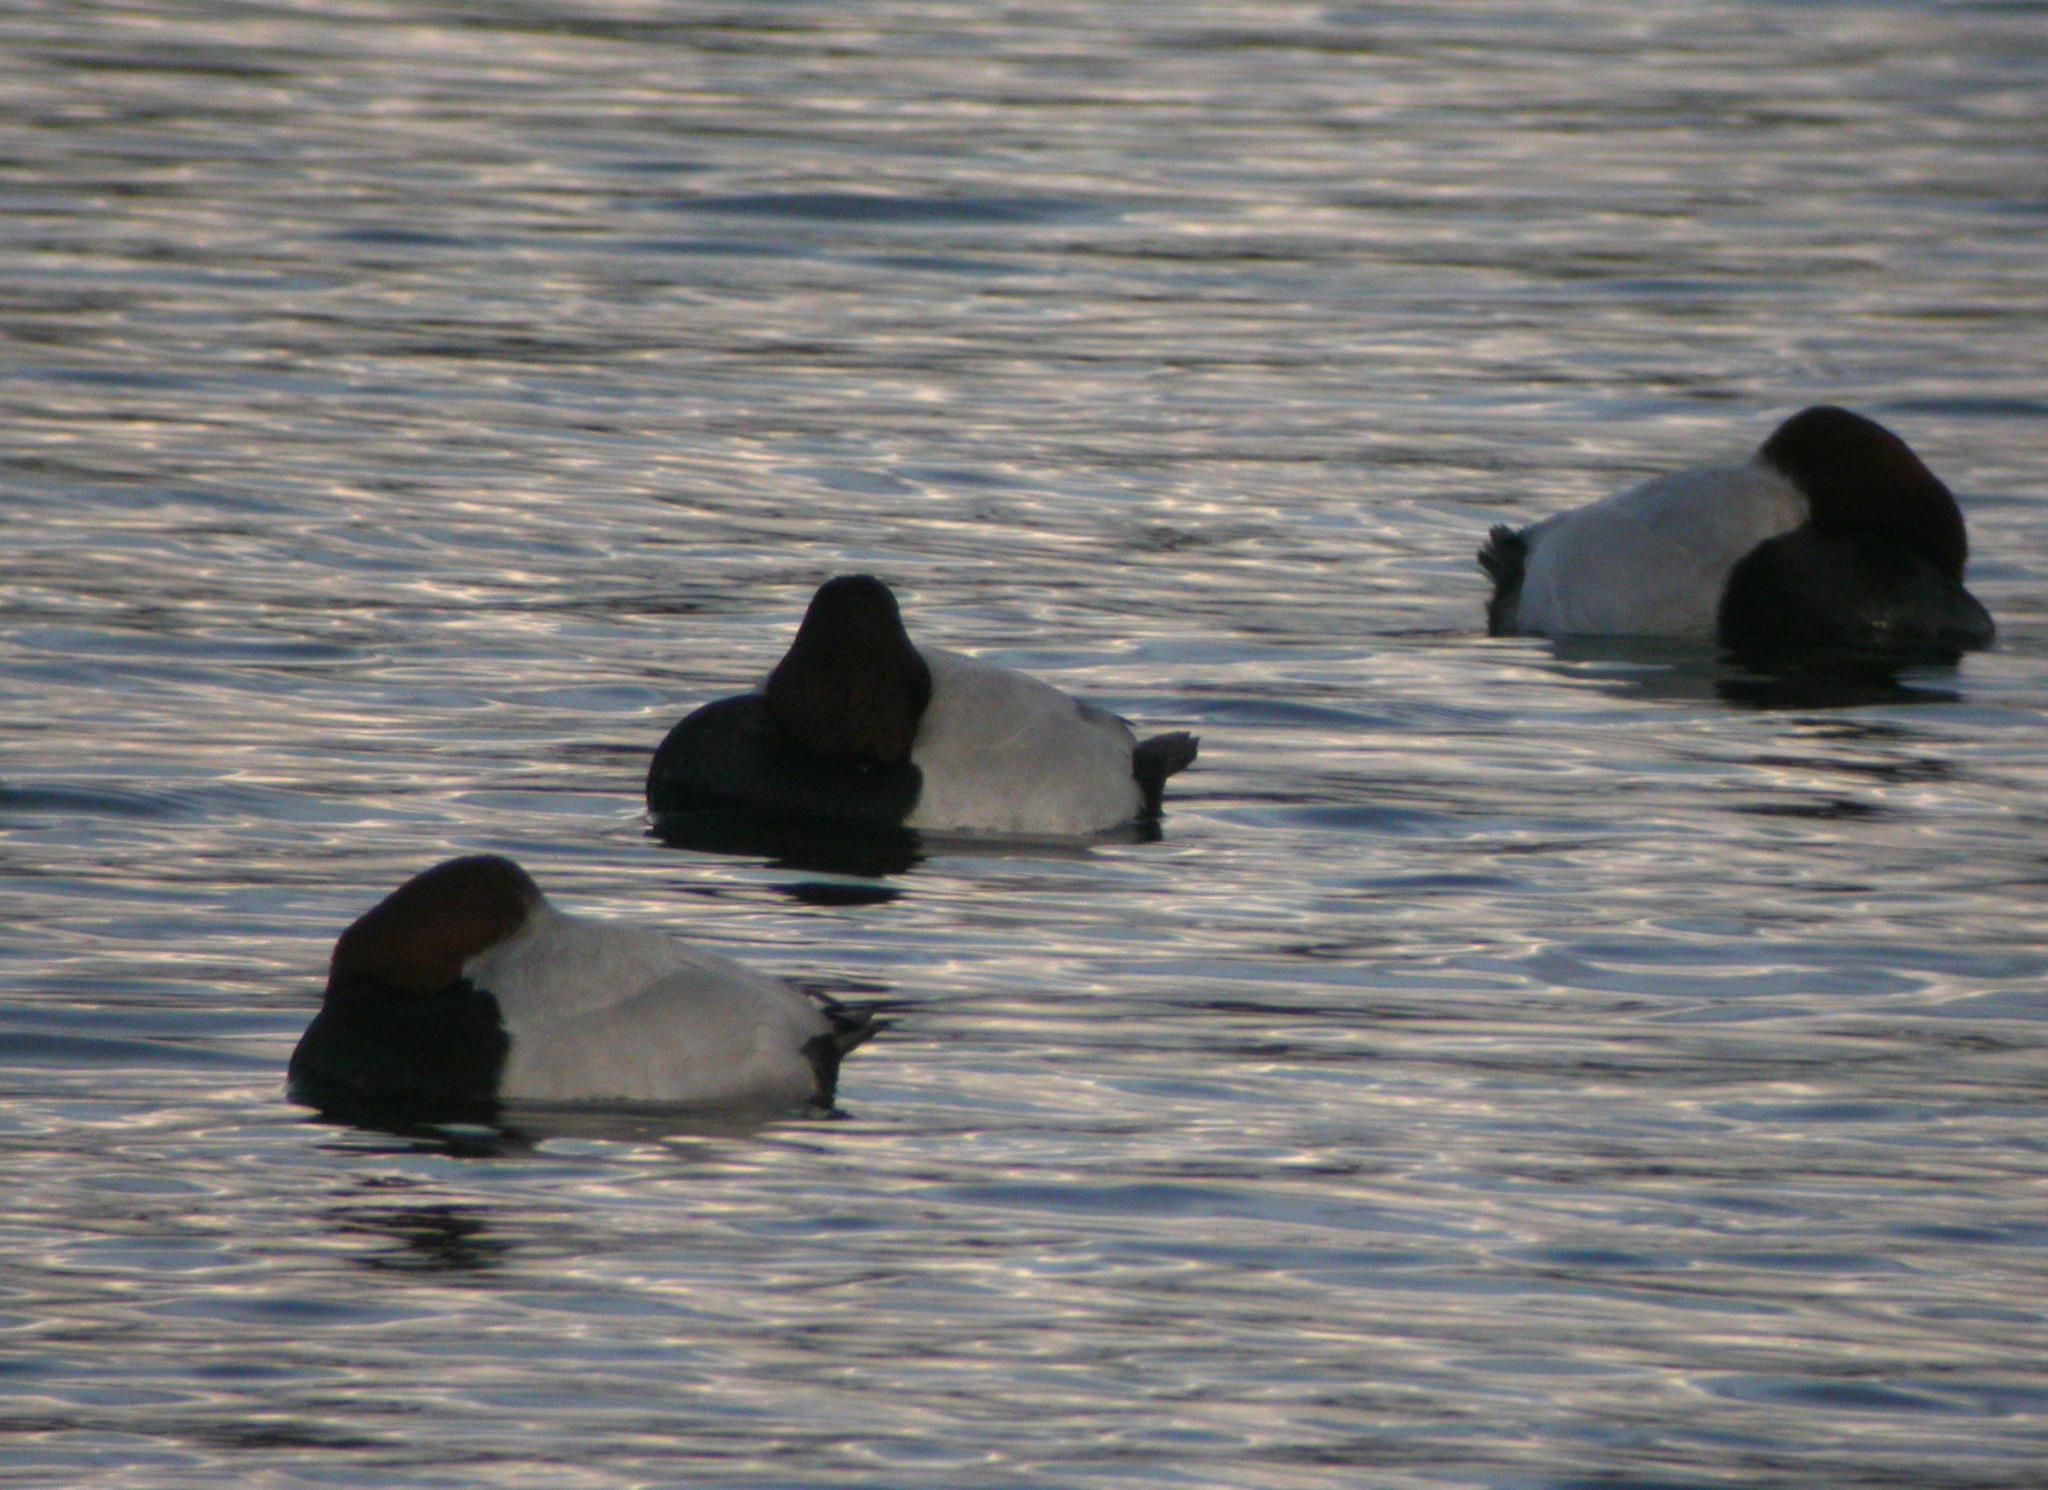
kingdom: Animalia
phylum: Chordata
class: Aves
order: Anseriformes
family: Anatidae
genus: Aythya
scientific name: Aythya ferina
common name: Common pochard
